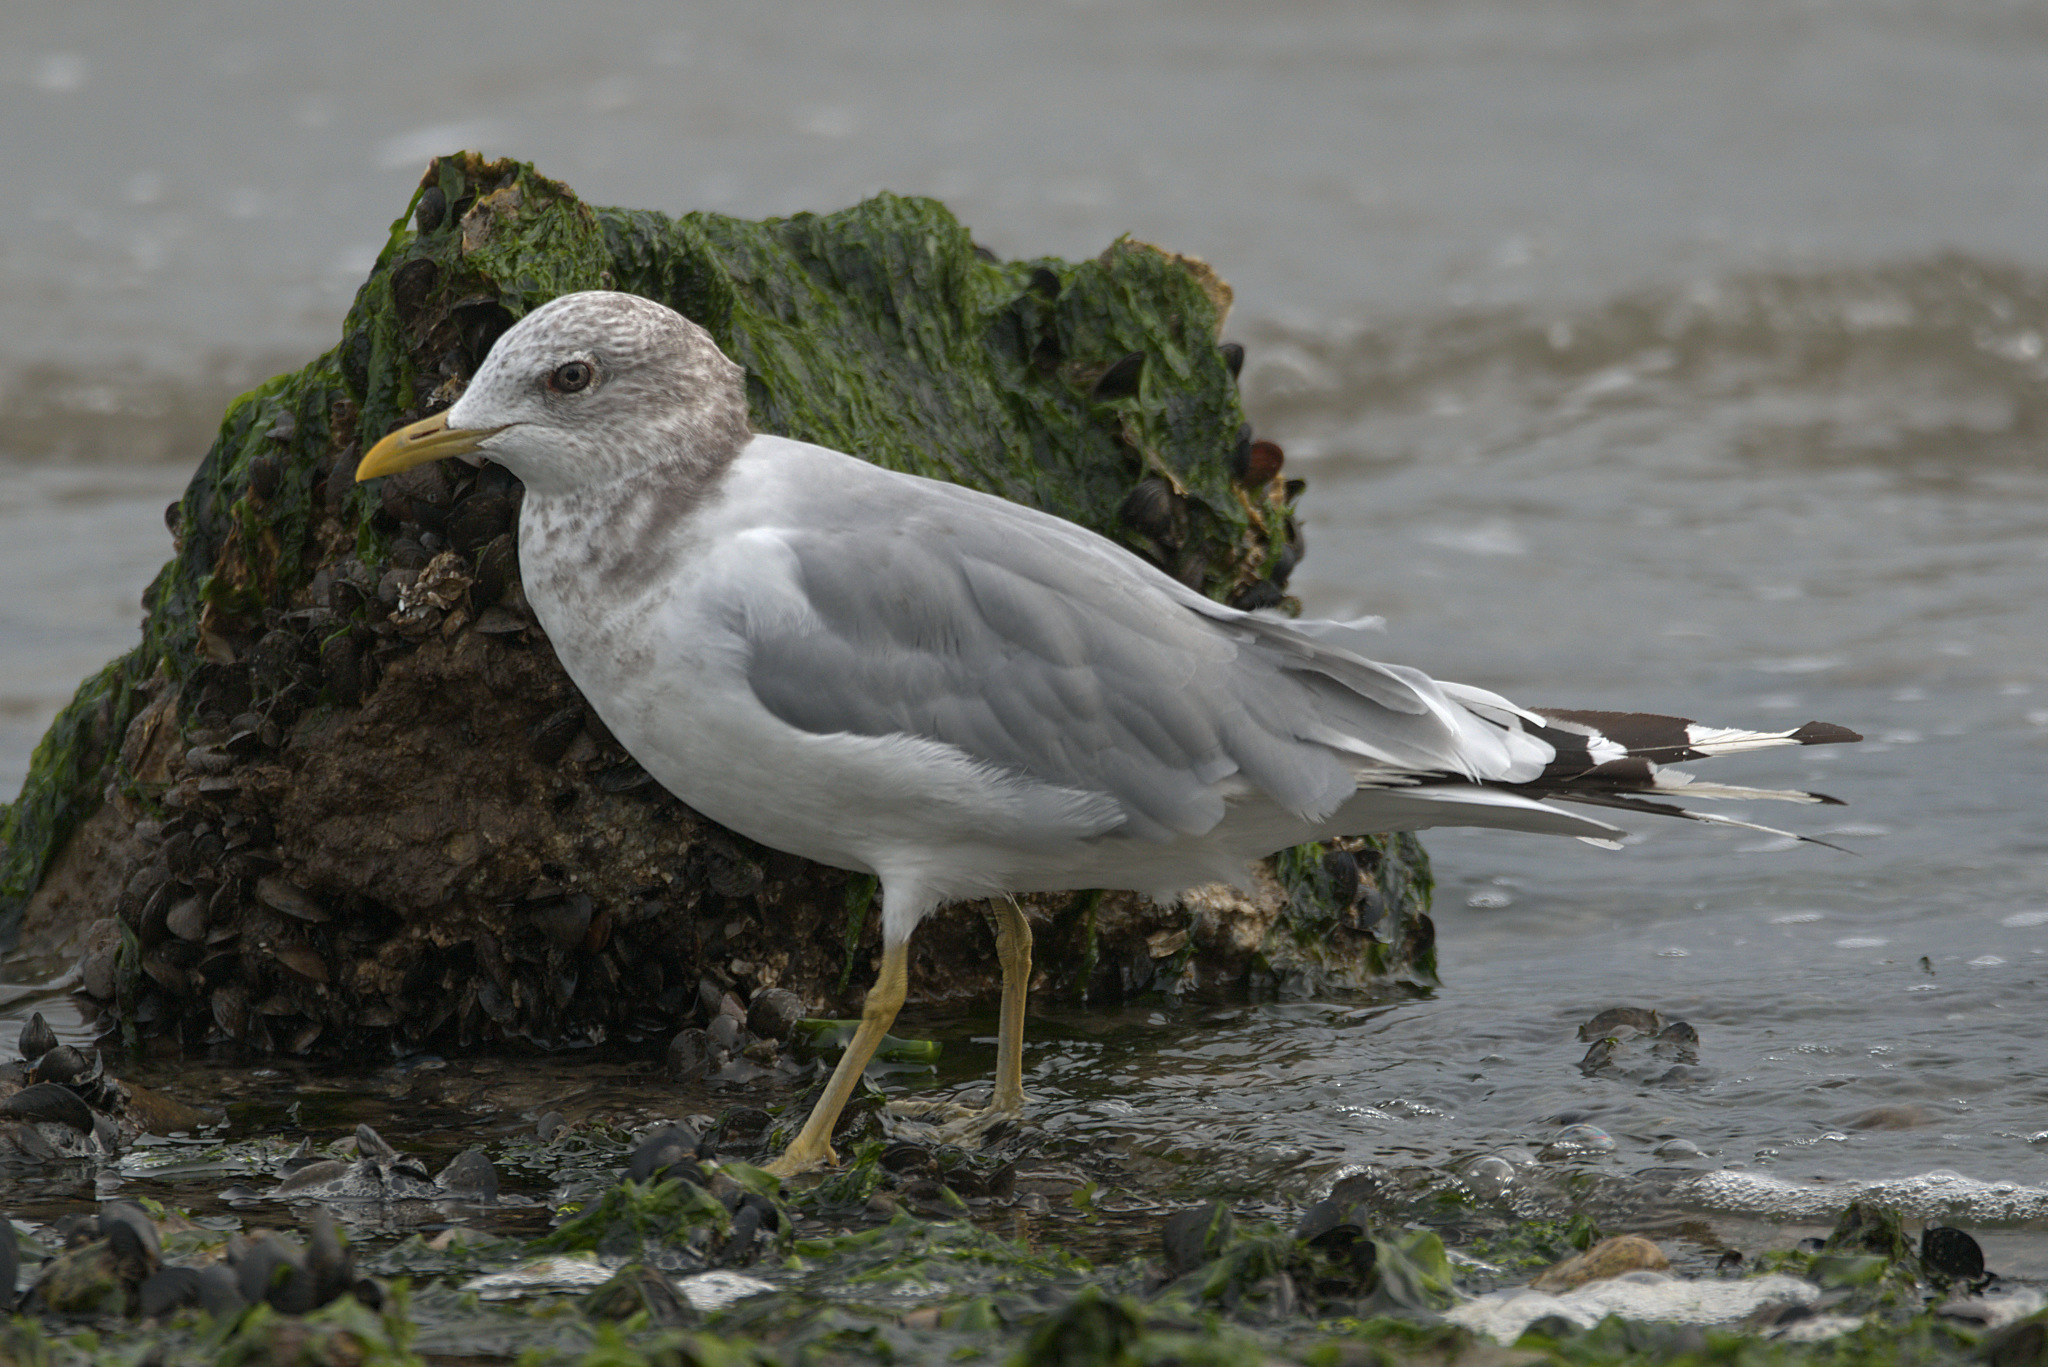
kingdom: Animalia
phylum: Chordata
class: Aves
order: Charadriiformes
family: Laridae
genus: Larus
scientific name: Larus brachyrhynchus
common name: Short-billed gull
